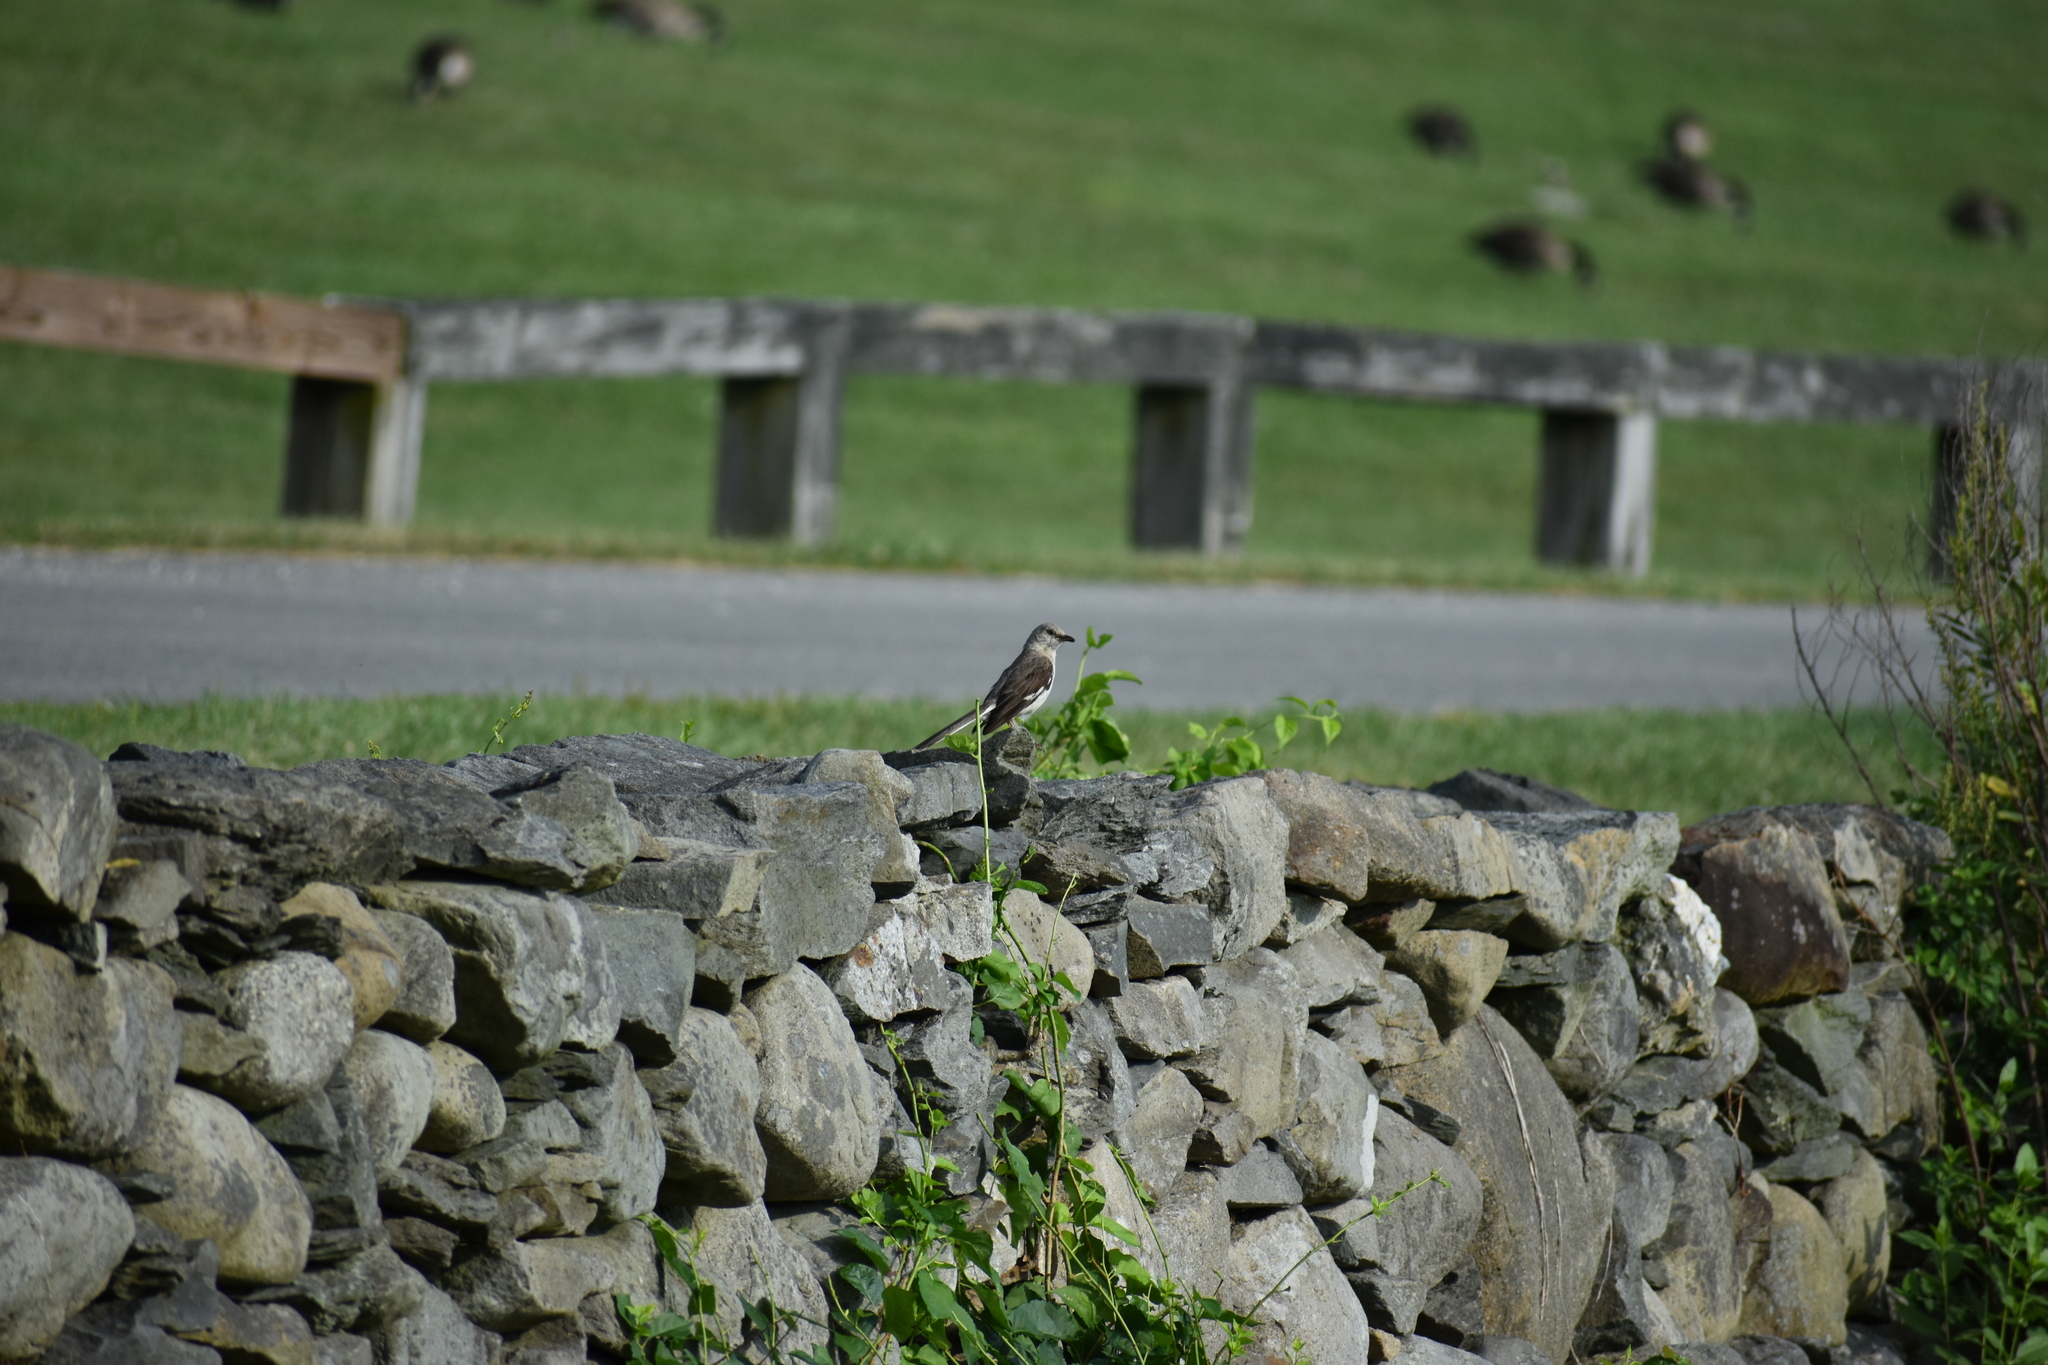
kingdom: Animalia
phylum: Chordata
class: Aves
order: Passeriformes
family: Mimidae
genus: Mimus
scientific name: Mimus polyglottos
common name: Northern mockingbird
